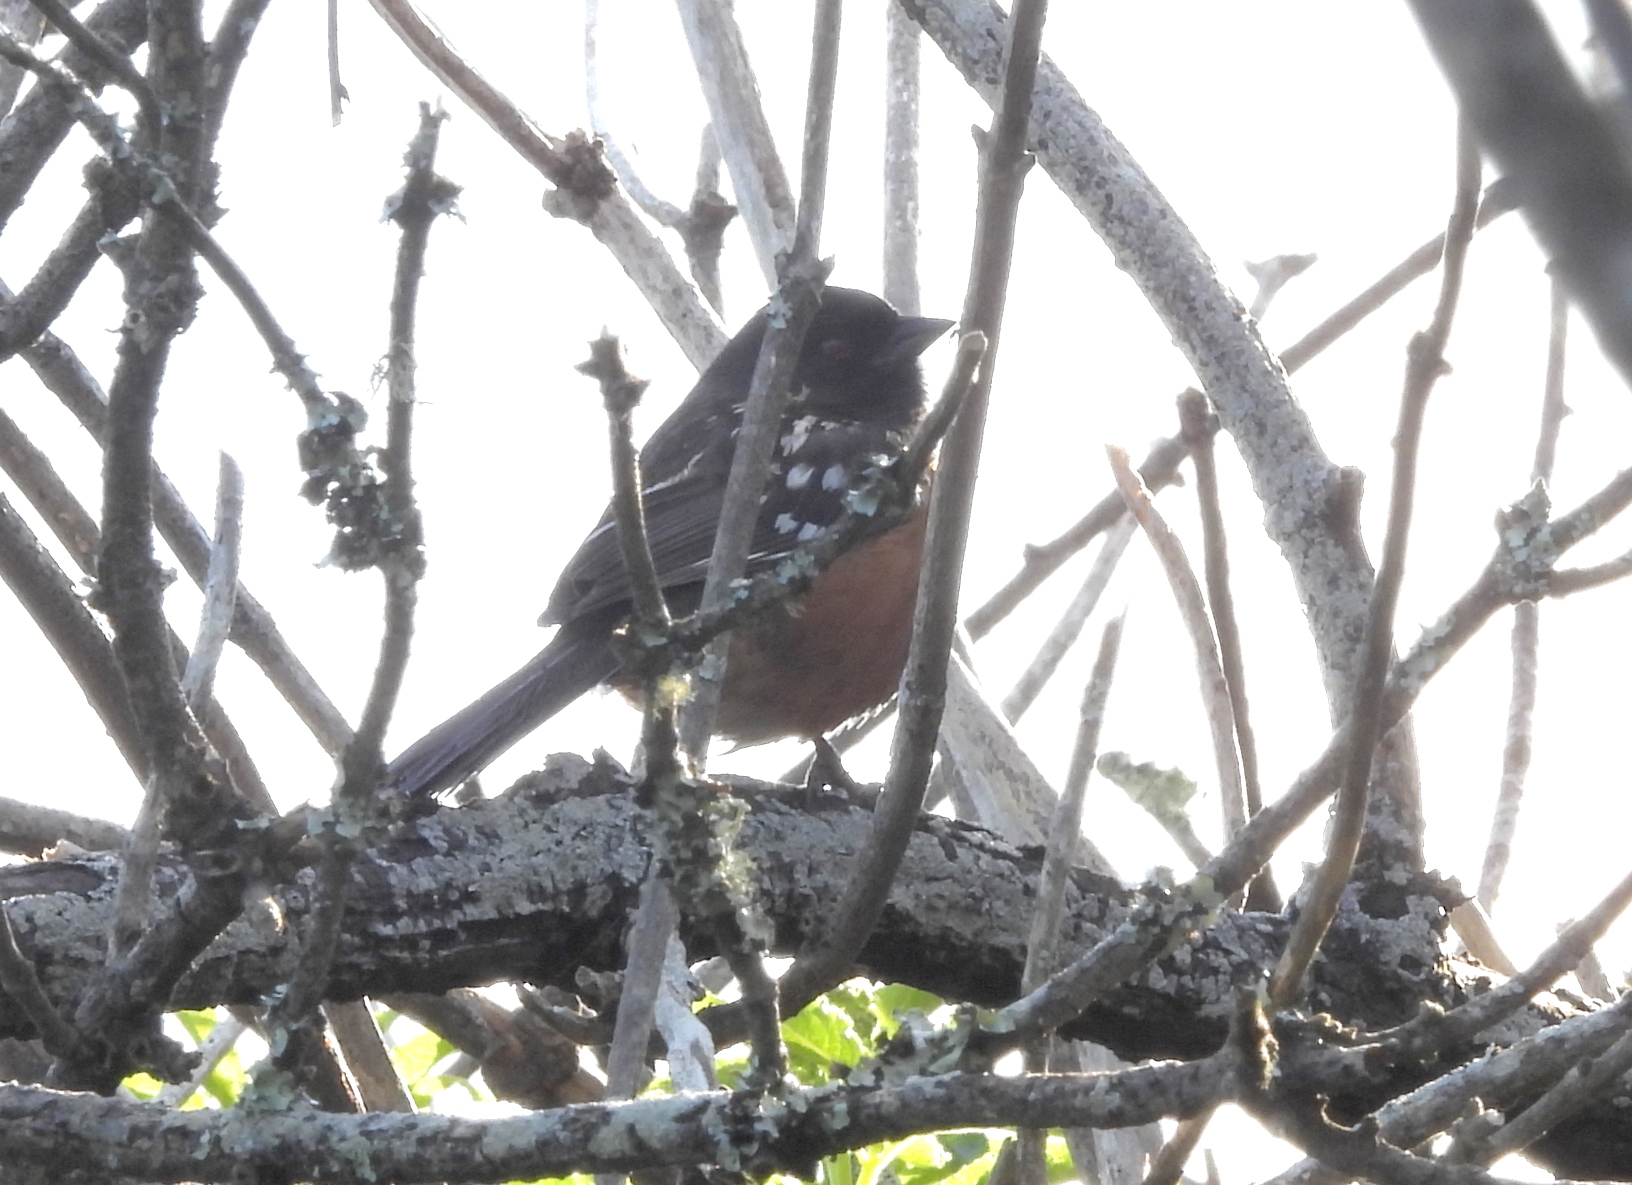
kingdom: Animalia
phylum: Chordata
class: Aves
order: Passeriformes
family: Passerellidae
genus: Pipilo
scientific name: Pipilo maculatus
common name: Spotted towhee
